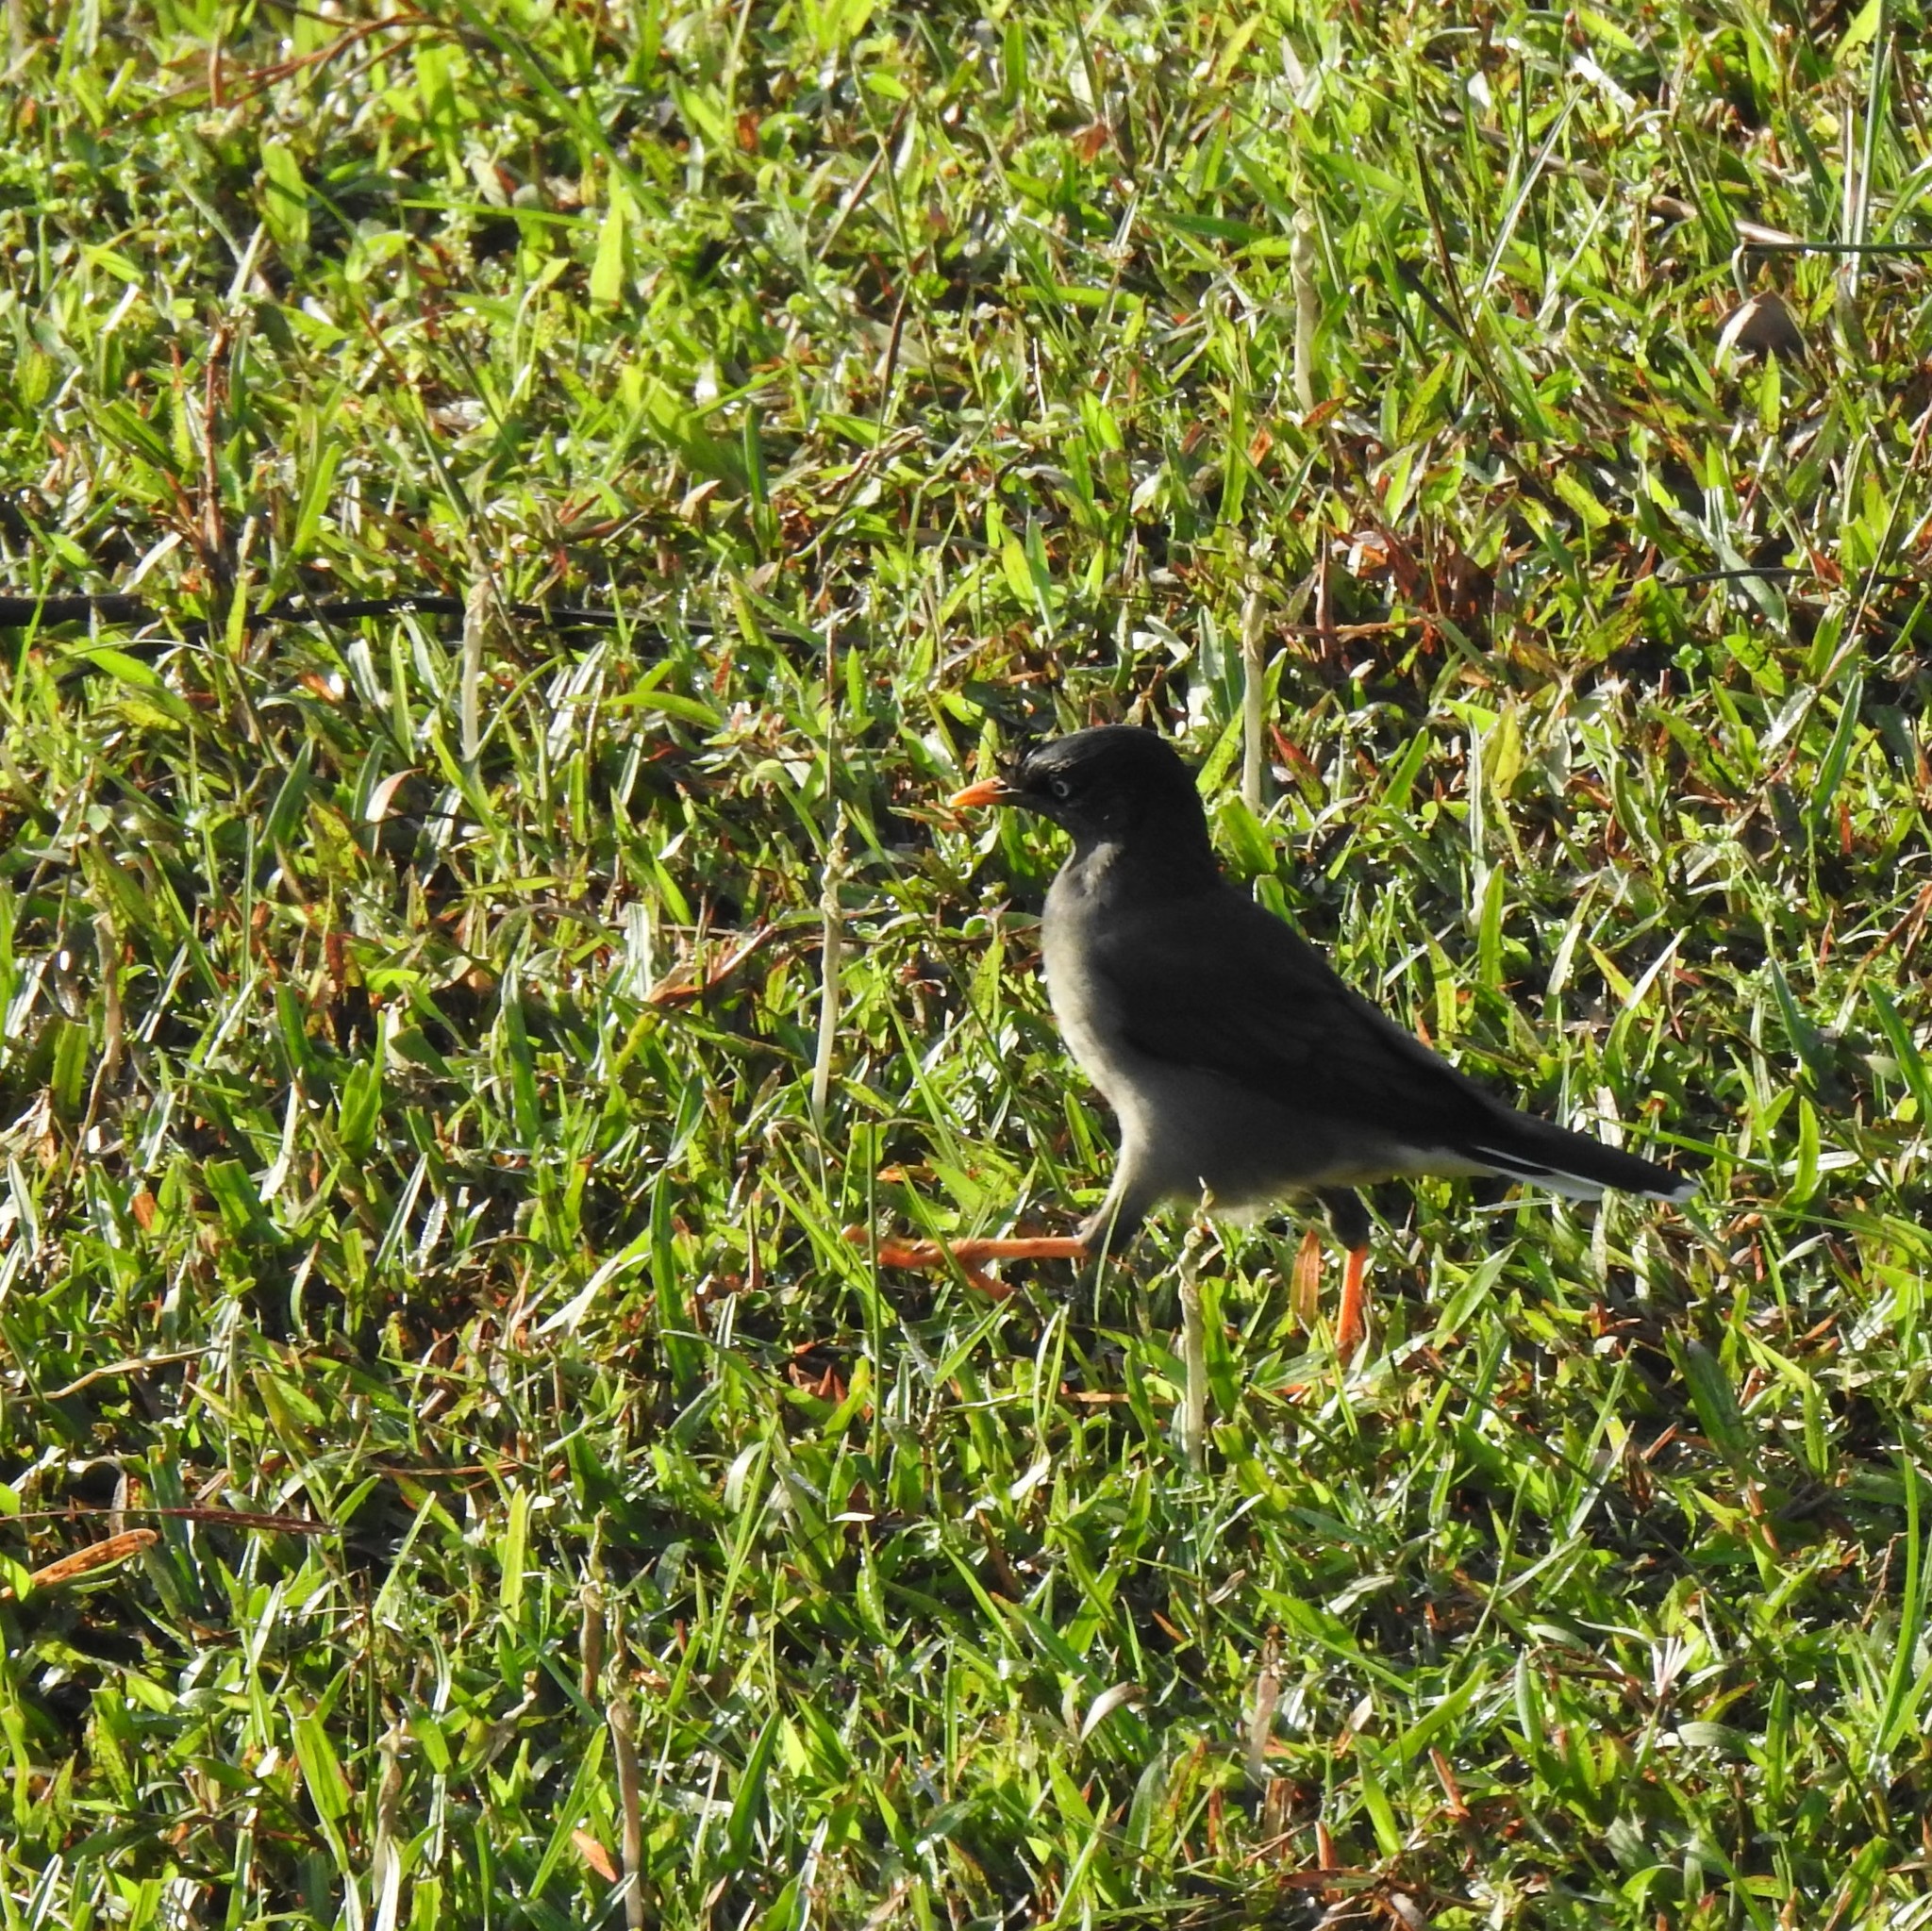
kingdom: Animalia
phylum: Chordata
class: Aves
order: Passeriformes
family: Sturnidae
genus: Acridotheres
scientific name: Acridotheres fuscus
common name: Jungle myna
